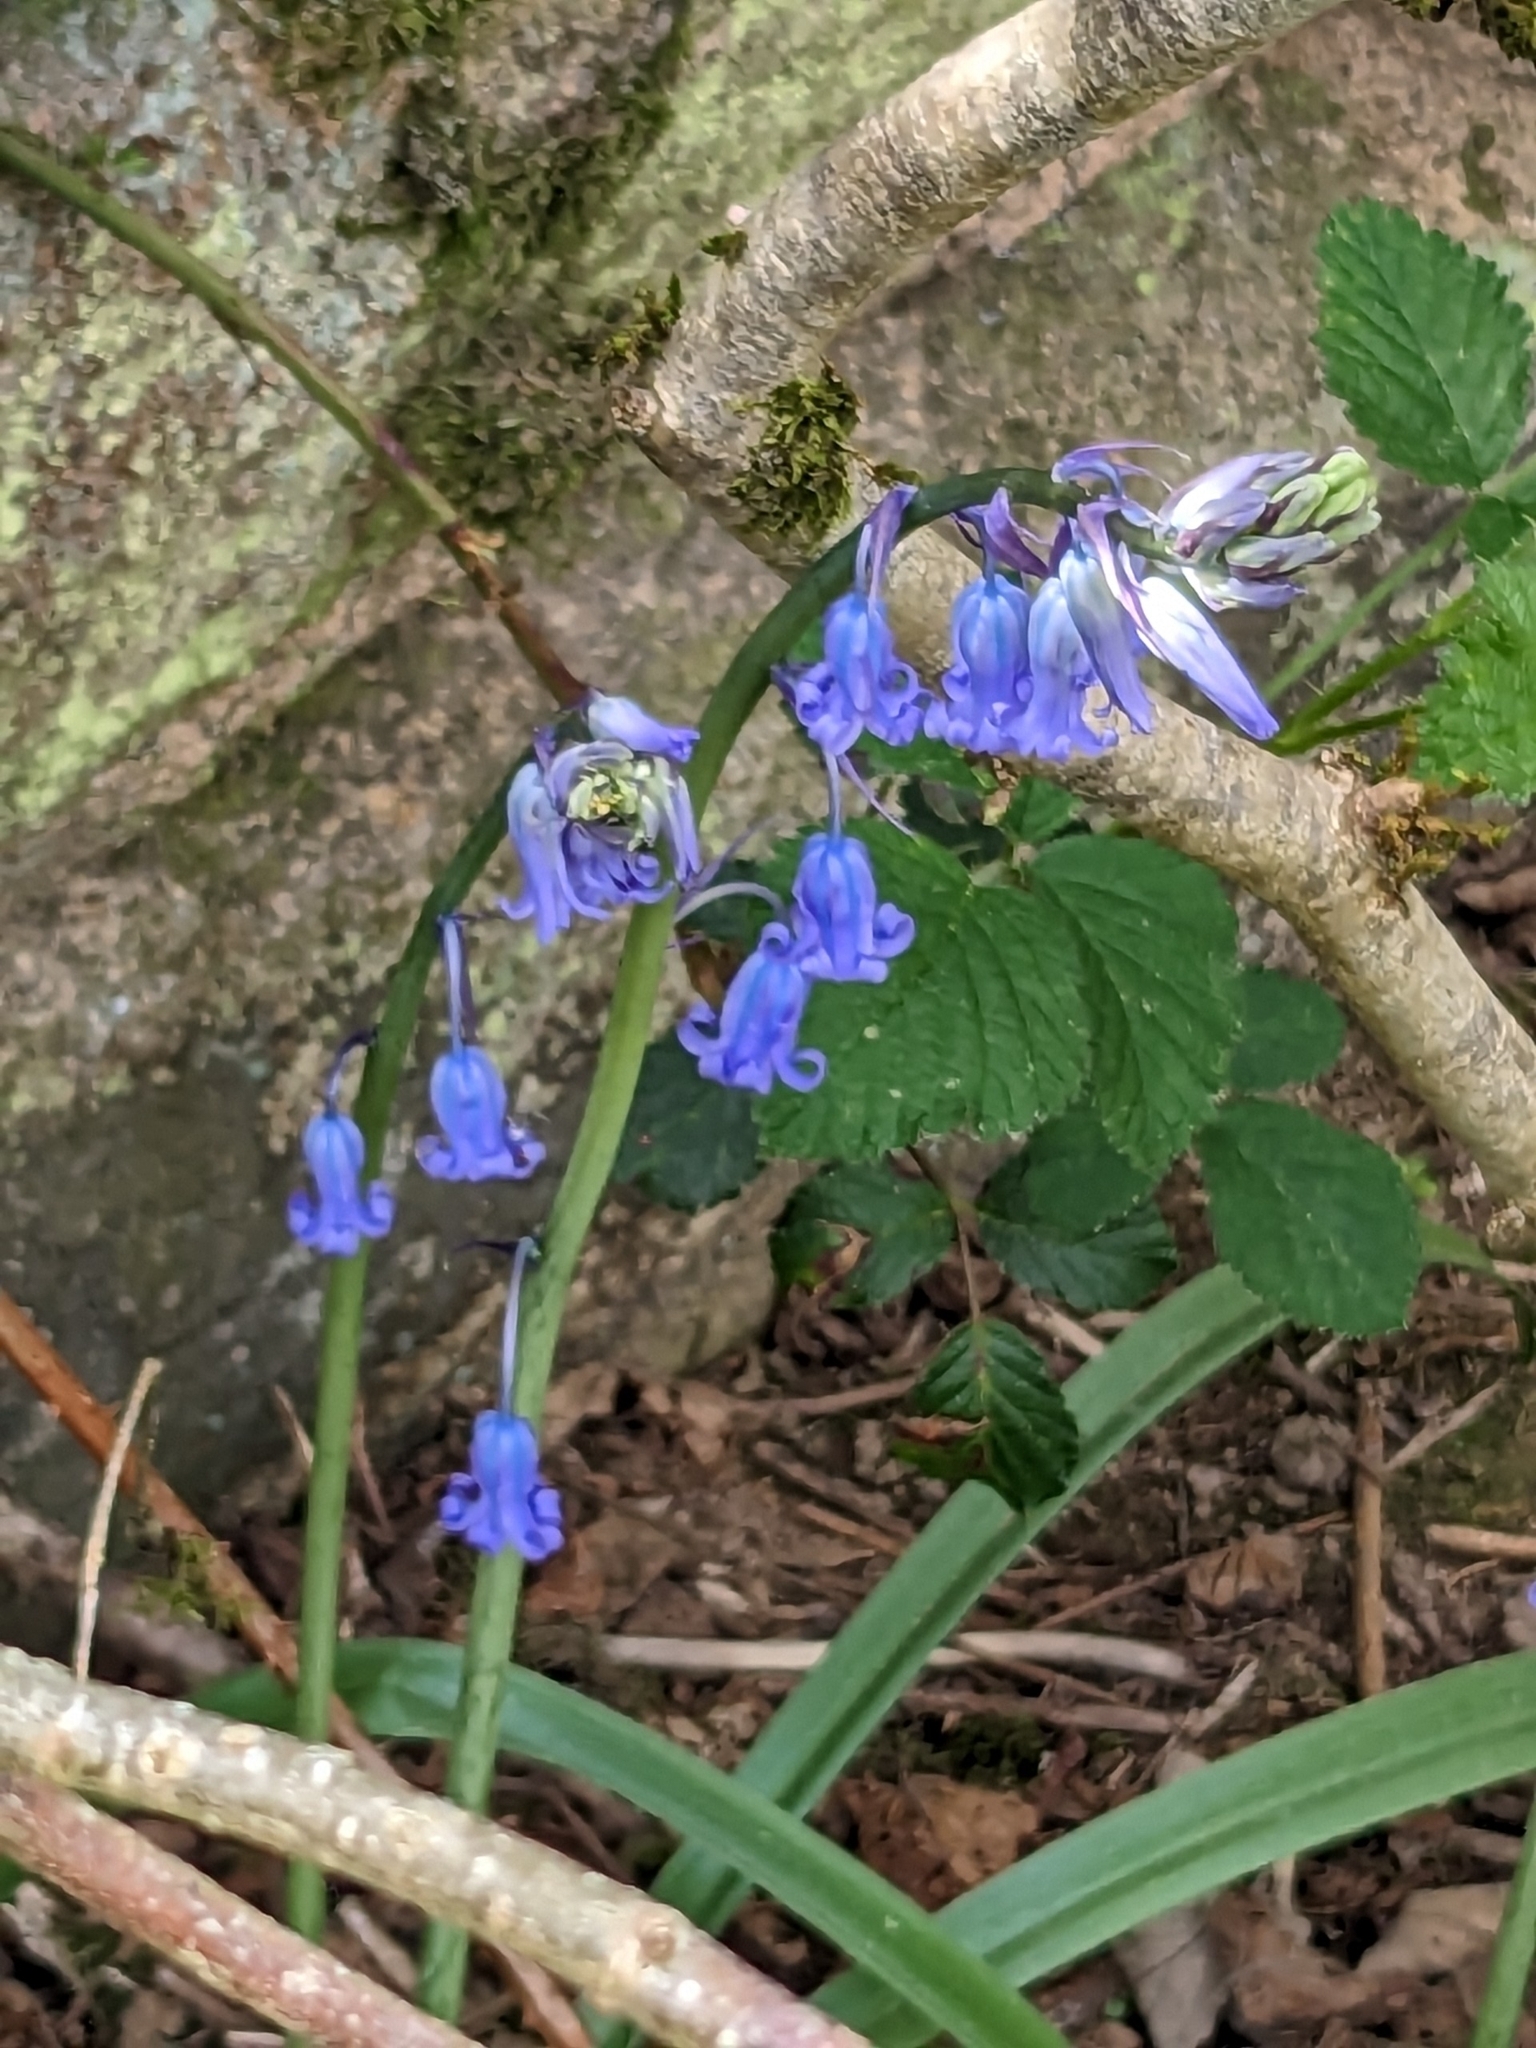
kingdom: Plantae
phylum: Tracheophyta
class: Liliopsida
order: Asparagales
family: Asparagaceae
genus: Hyacinthoides
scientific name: Hyacinthoides non-scripta
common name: Bluebell
